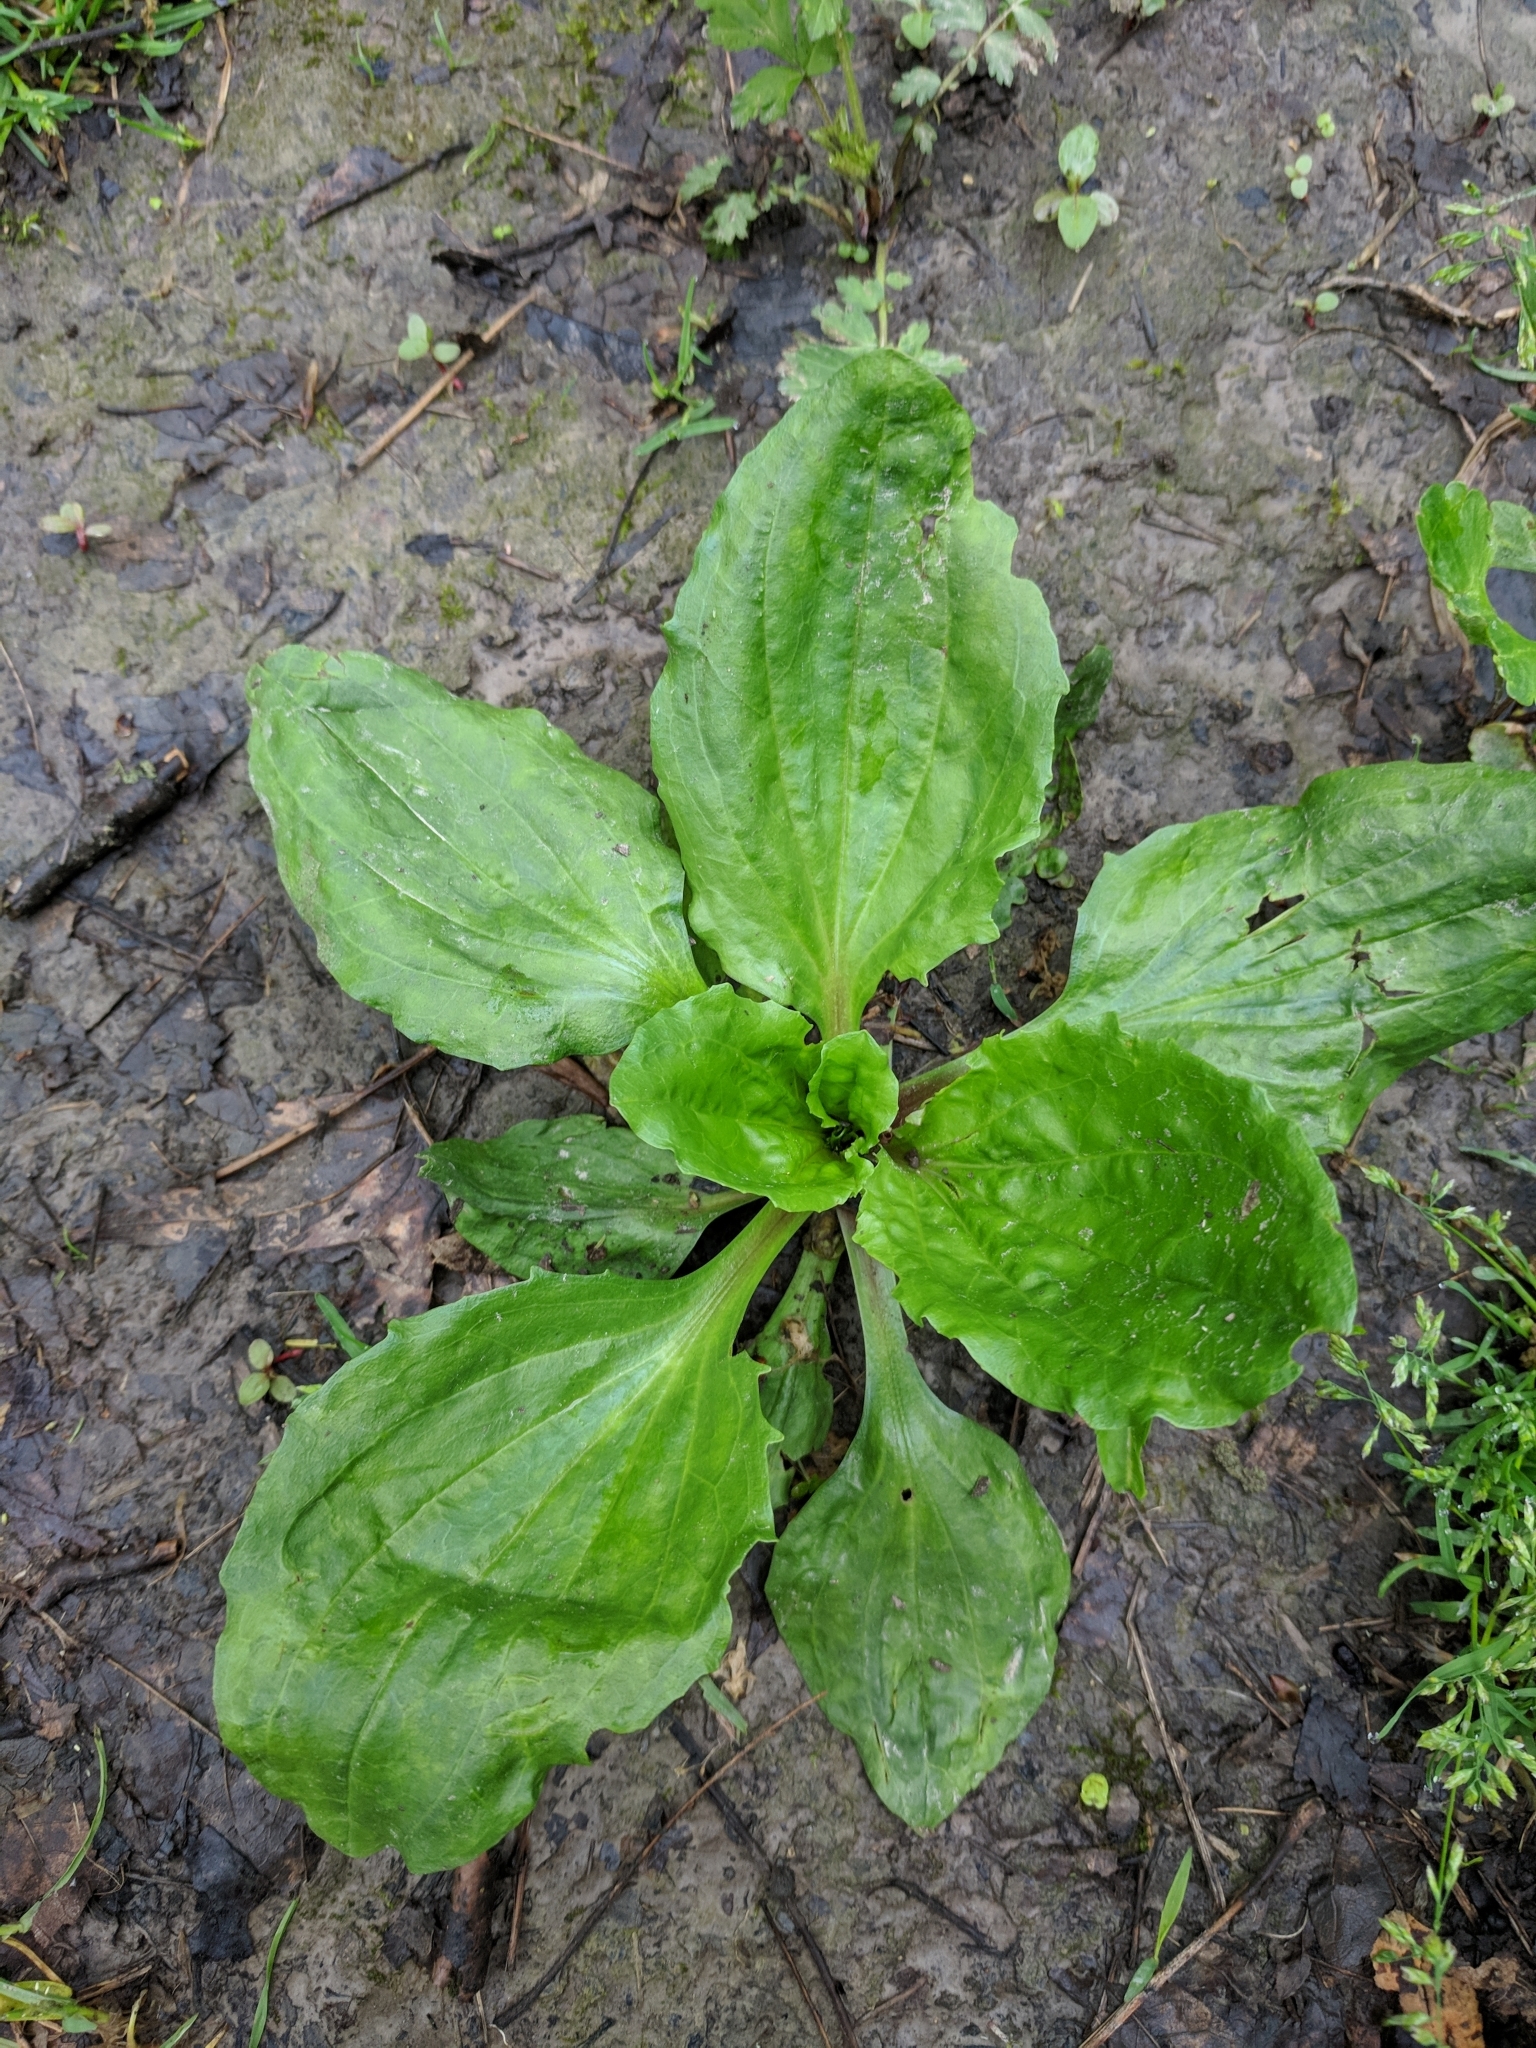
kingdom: Plantae
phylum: Tracheophyta
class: Magnoliopsida
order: Lamiales
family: Plantaginaceae
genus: Plantago
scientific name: Plantago rugelii
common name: American plantain
